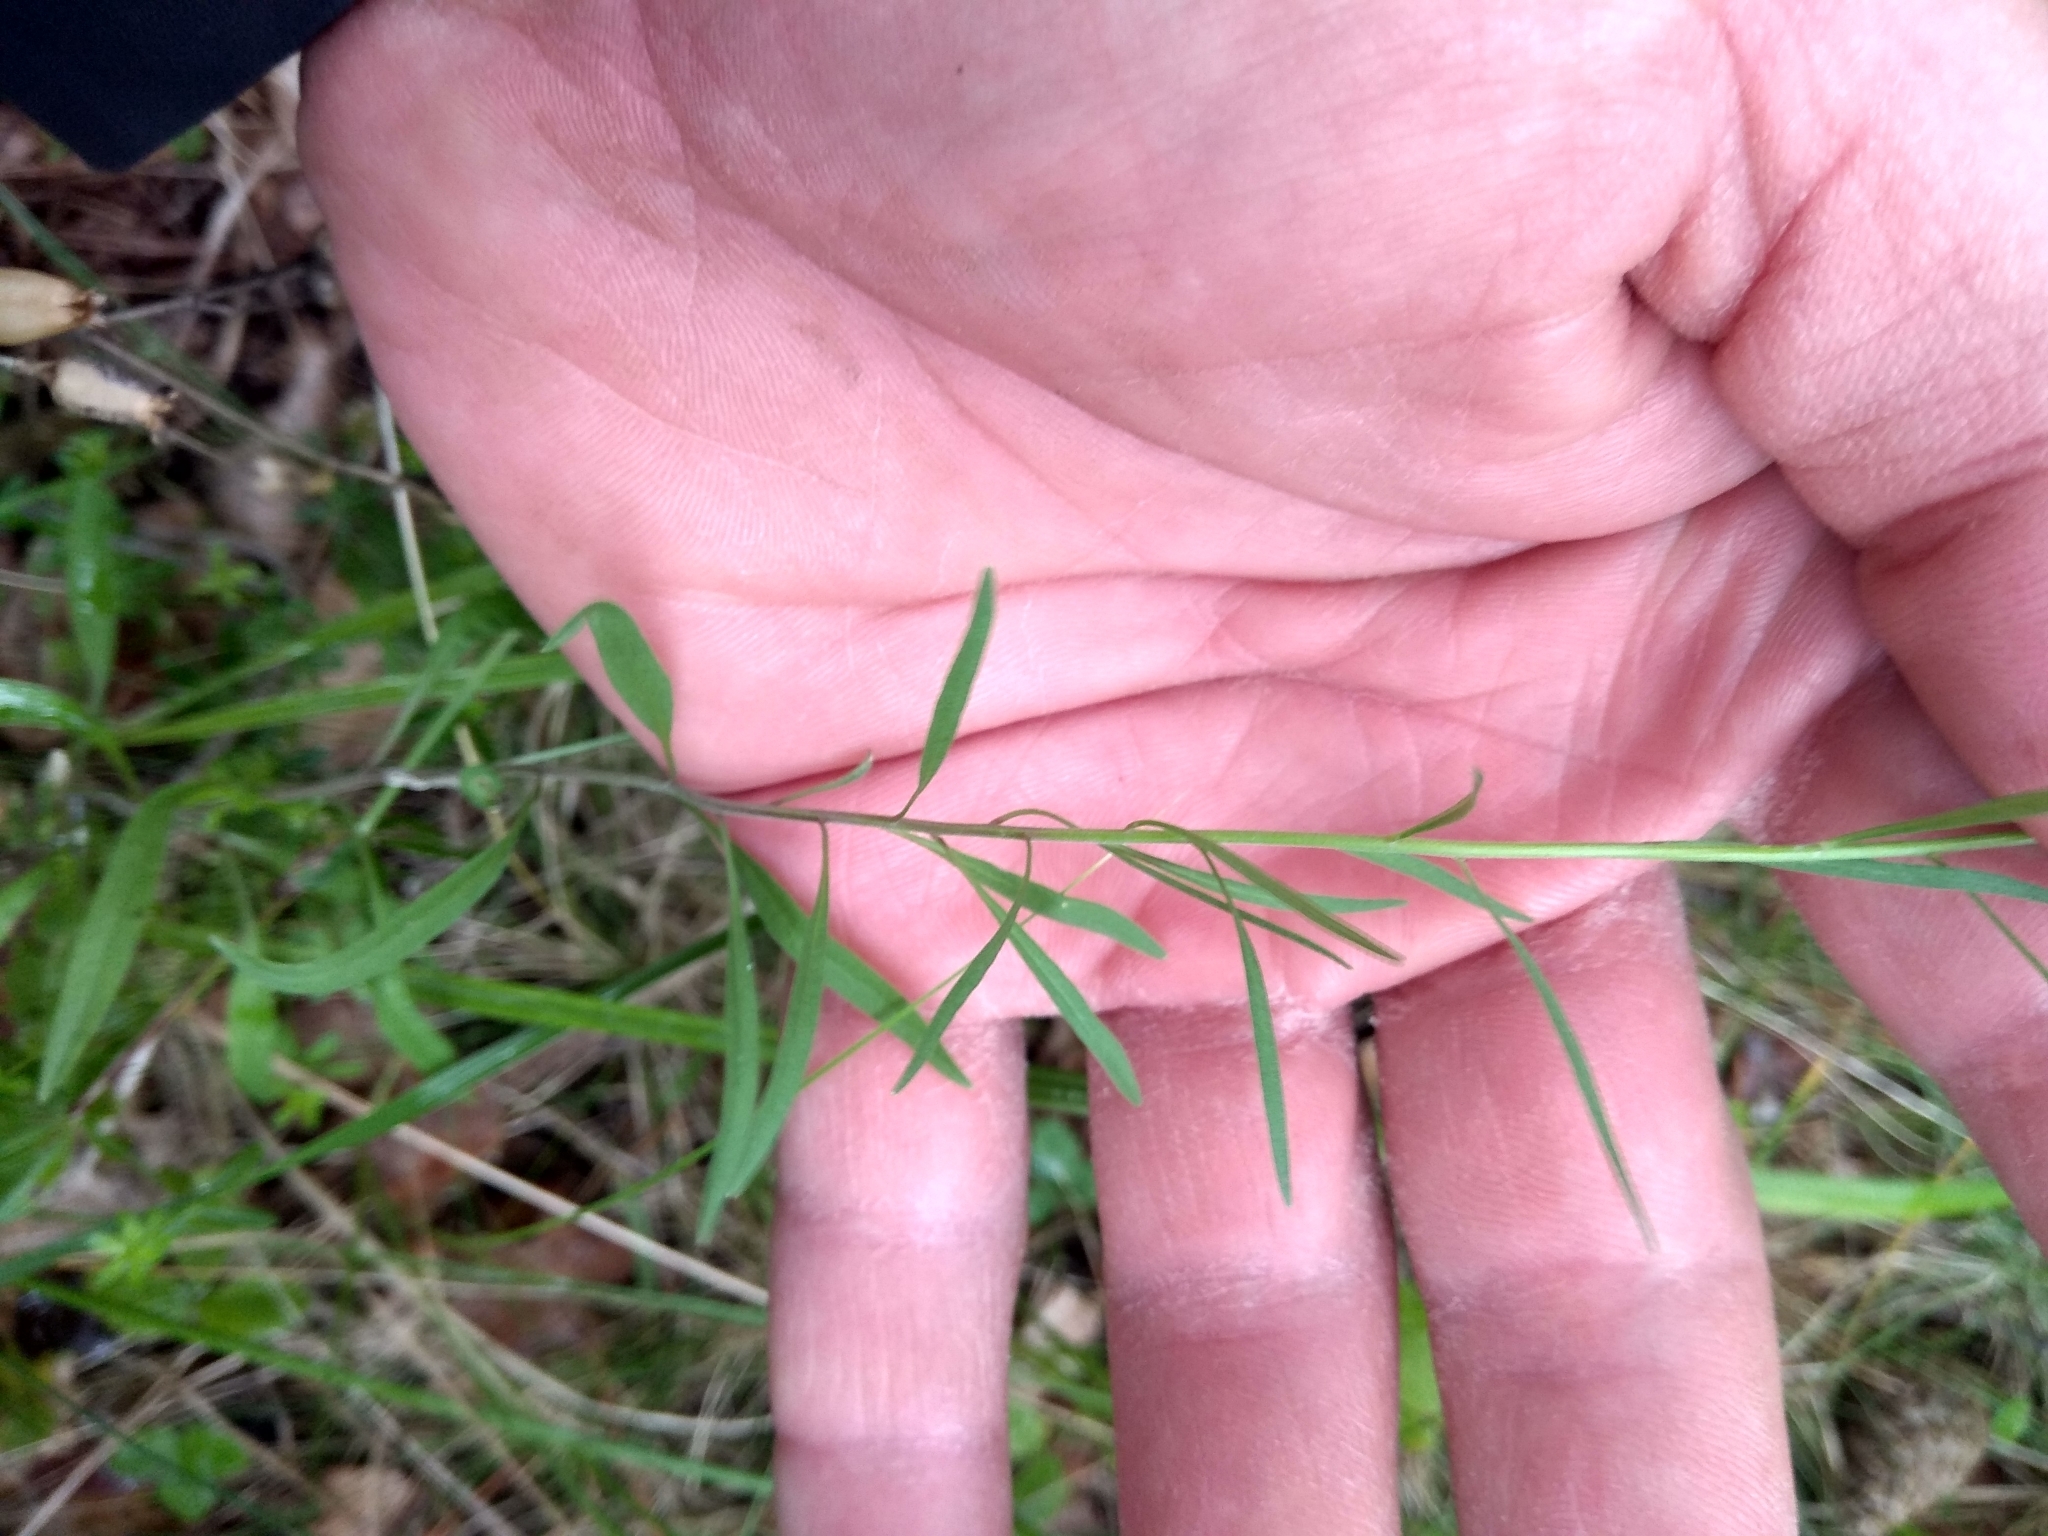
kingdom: Plantae
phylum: Tracheophyta
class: Magnoliopsida
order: Asterales
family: Campanulaceae
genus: Campanula
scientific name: Campanula rotundifolia
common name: Harebell
